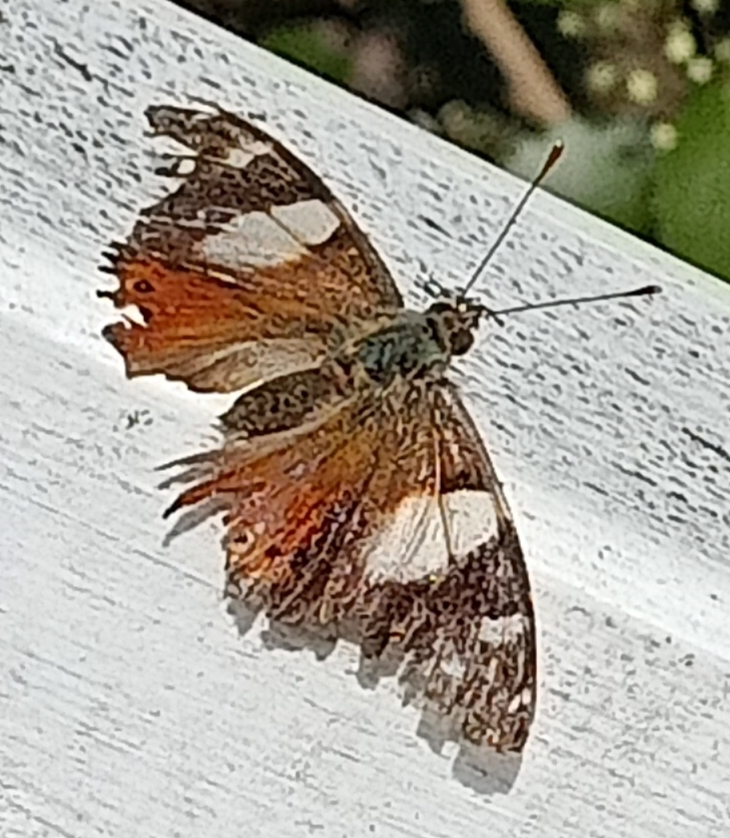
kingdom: Animalia
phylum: Arthropoda
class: Insecta
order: Lepidoptera
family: Nymphalidae
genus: Vanessa
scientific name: Vanessa itea
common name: Yellow admiral
